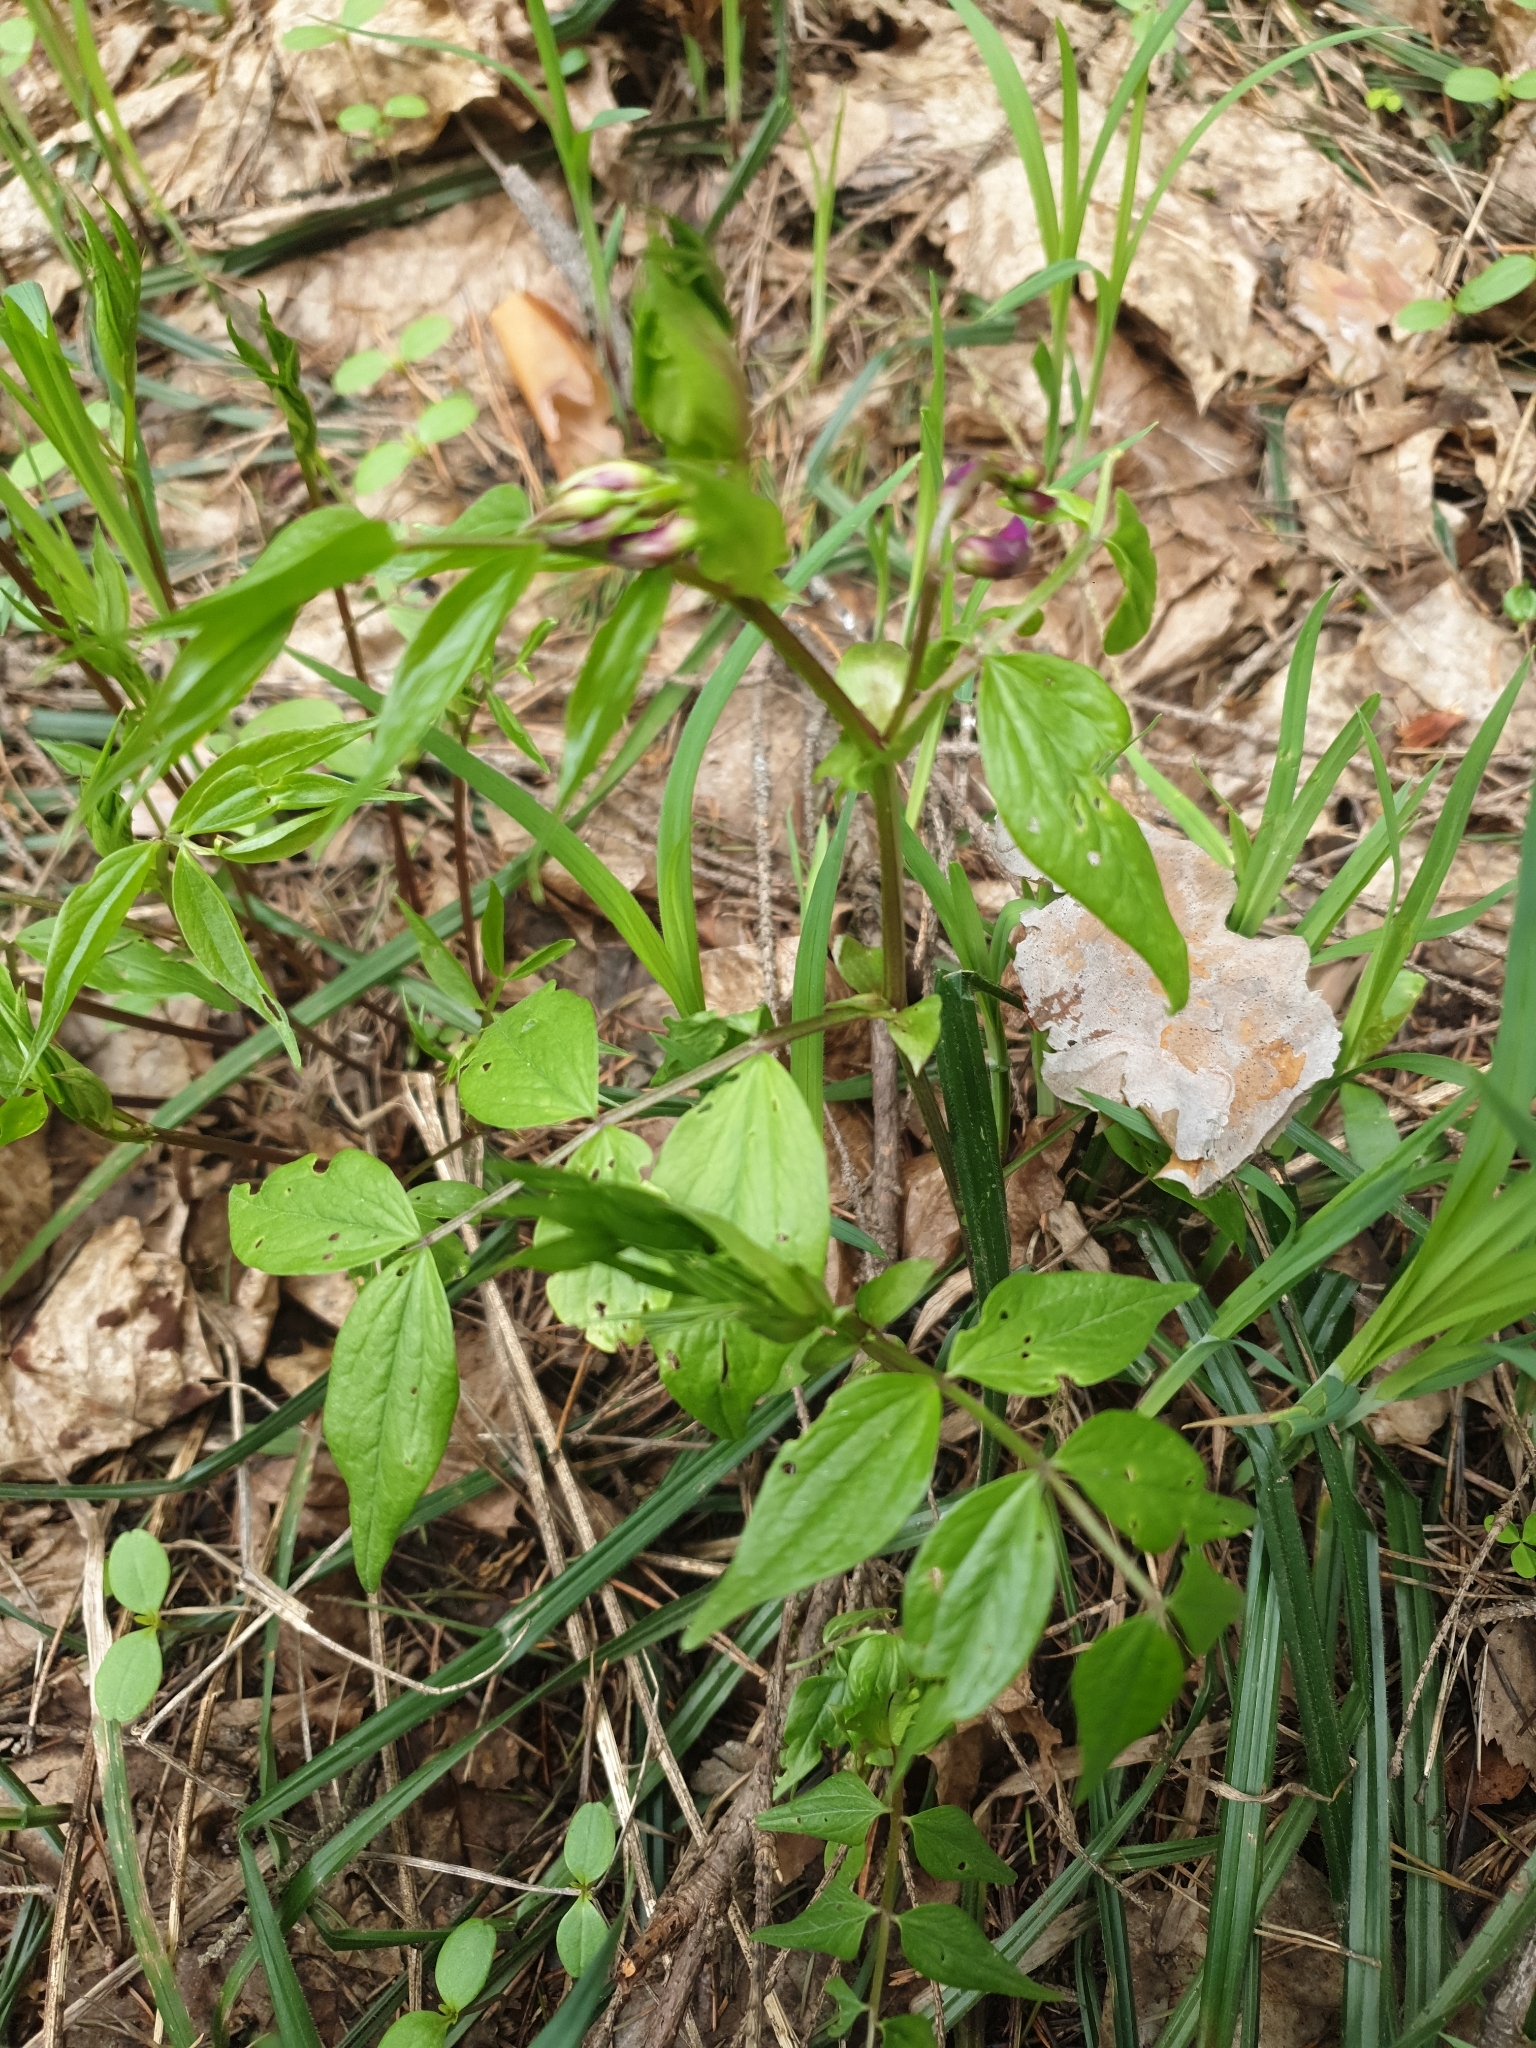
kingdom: Plantae
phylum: Tracheophyta
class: Magnoliopsida
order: Fabales
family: Fabaceae
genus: Lathyrus
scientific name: Lathyrus vernus
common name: Spring pea
